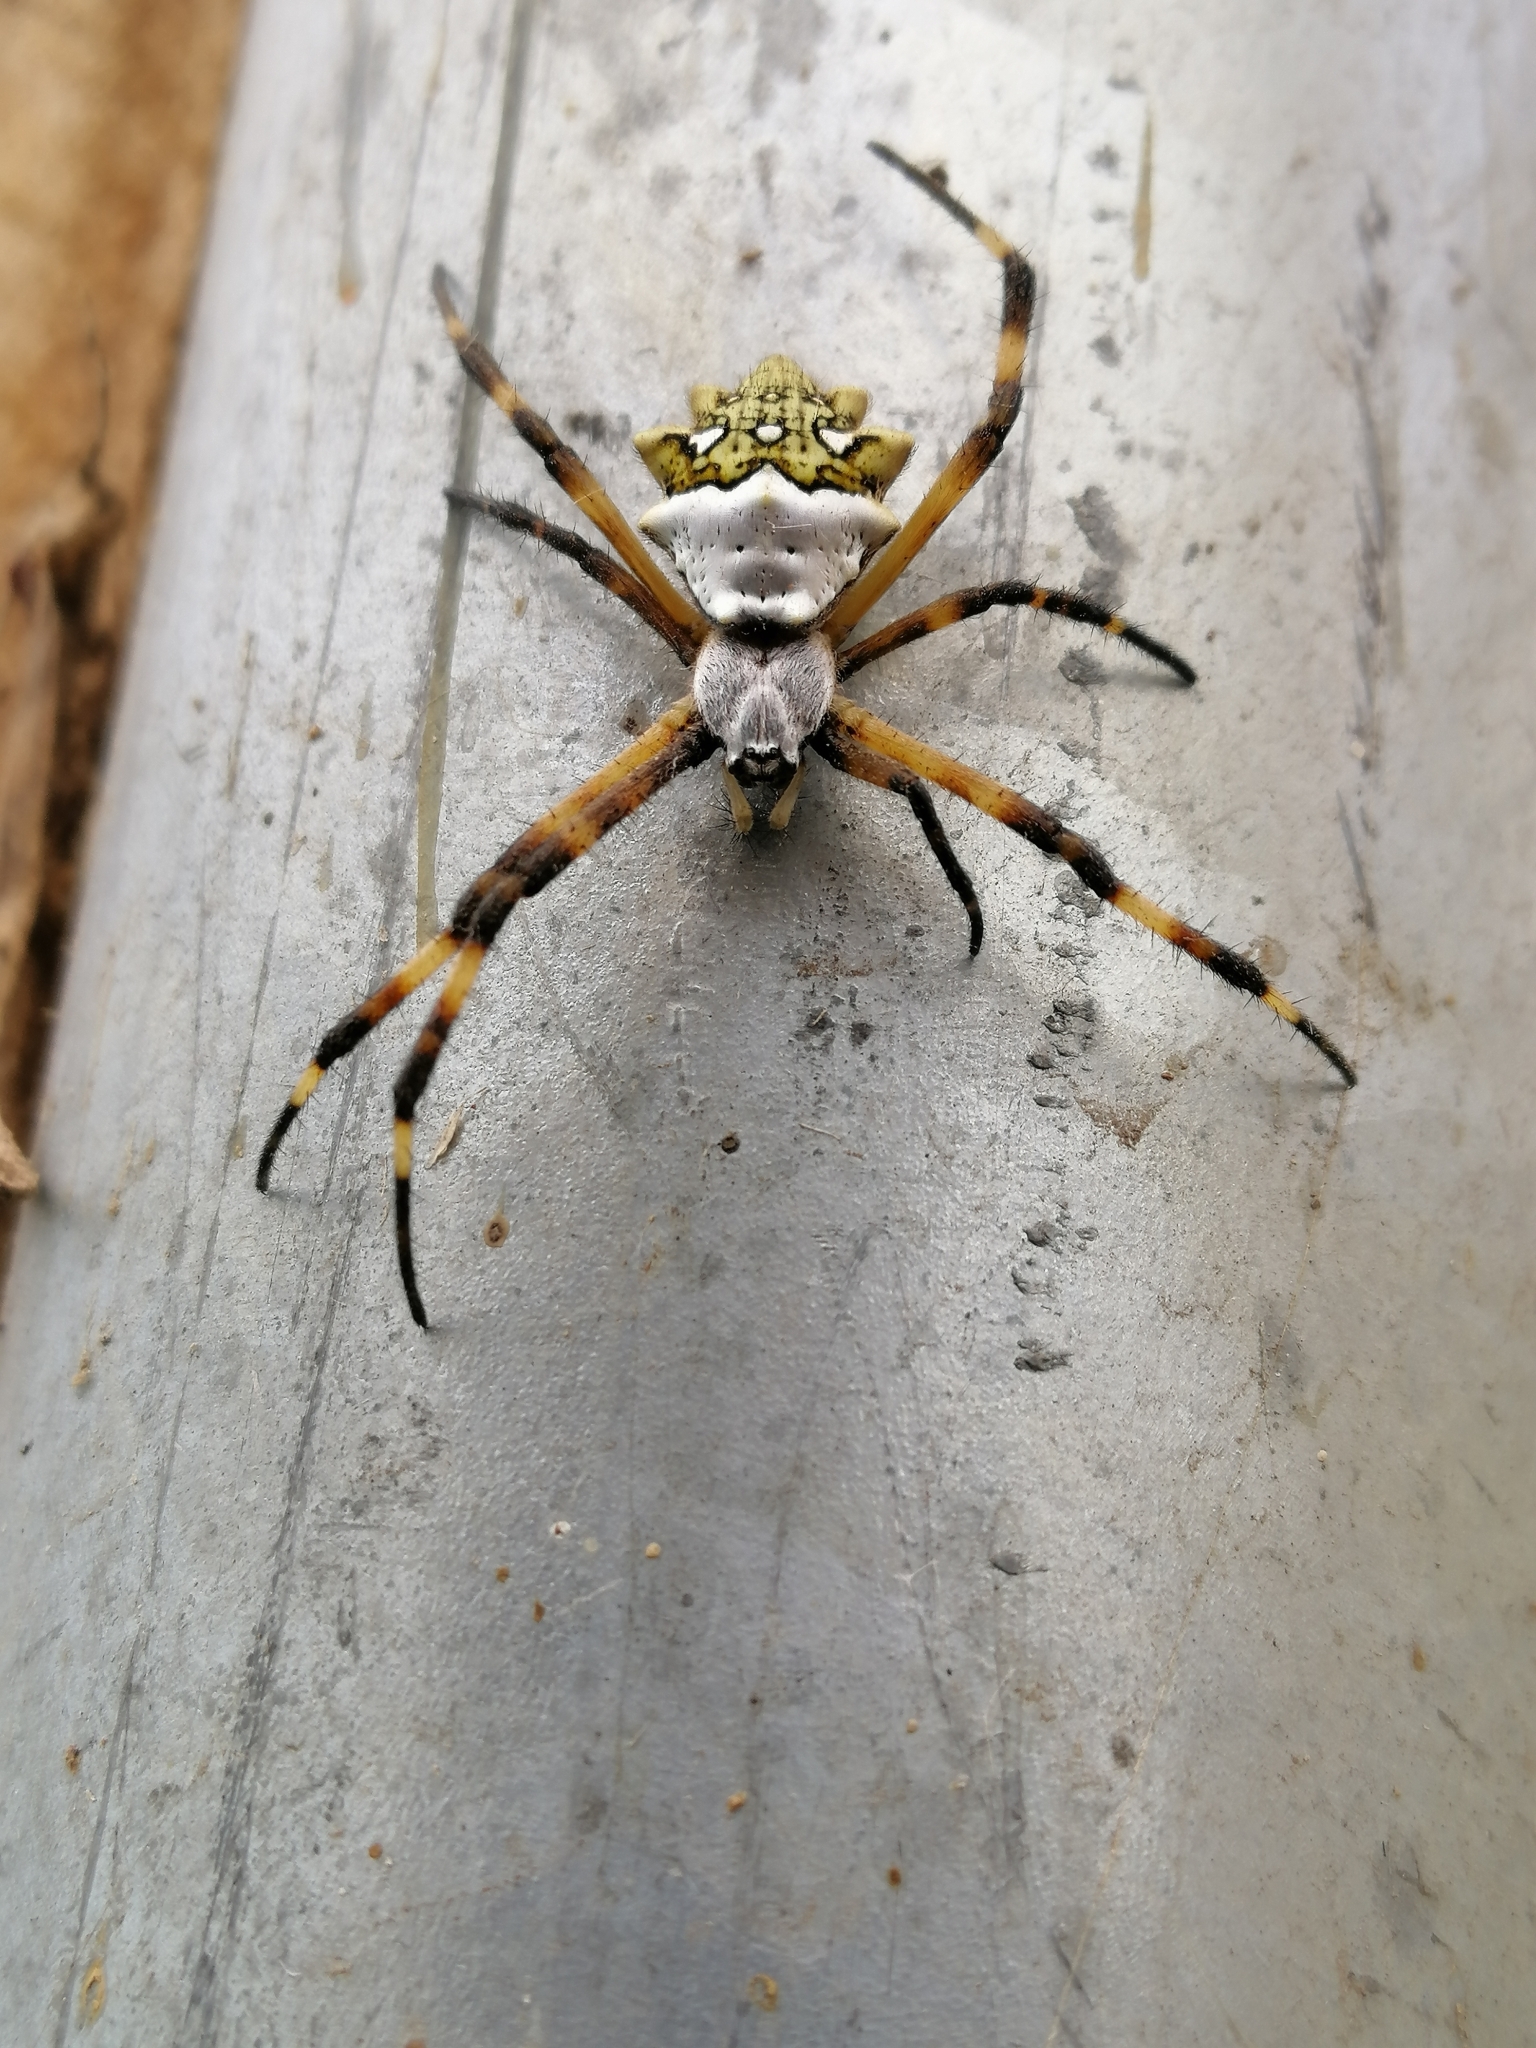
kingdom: Animalia
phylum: Arthropoda
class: Arachnida
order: Araneae
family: Araneidae
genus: Argiope
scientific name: Argiope argentata
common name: Orb weavers
